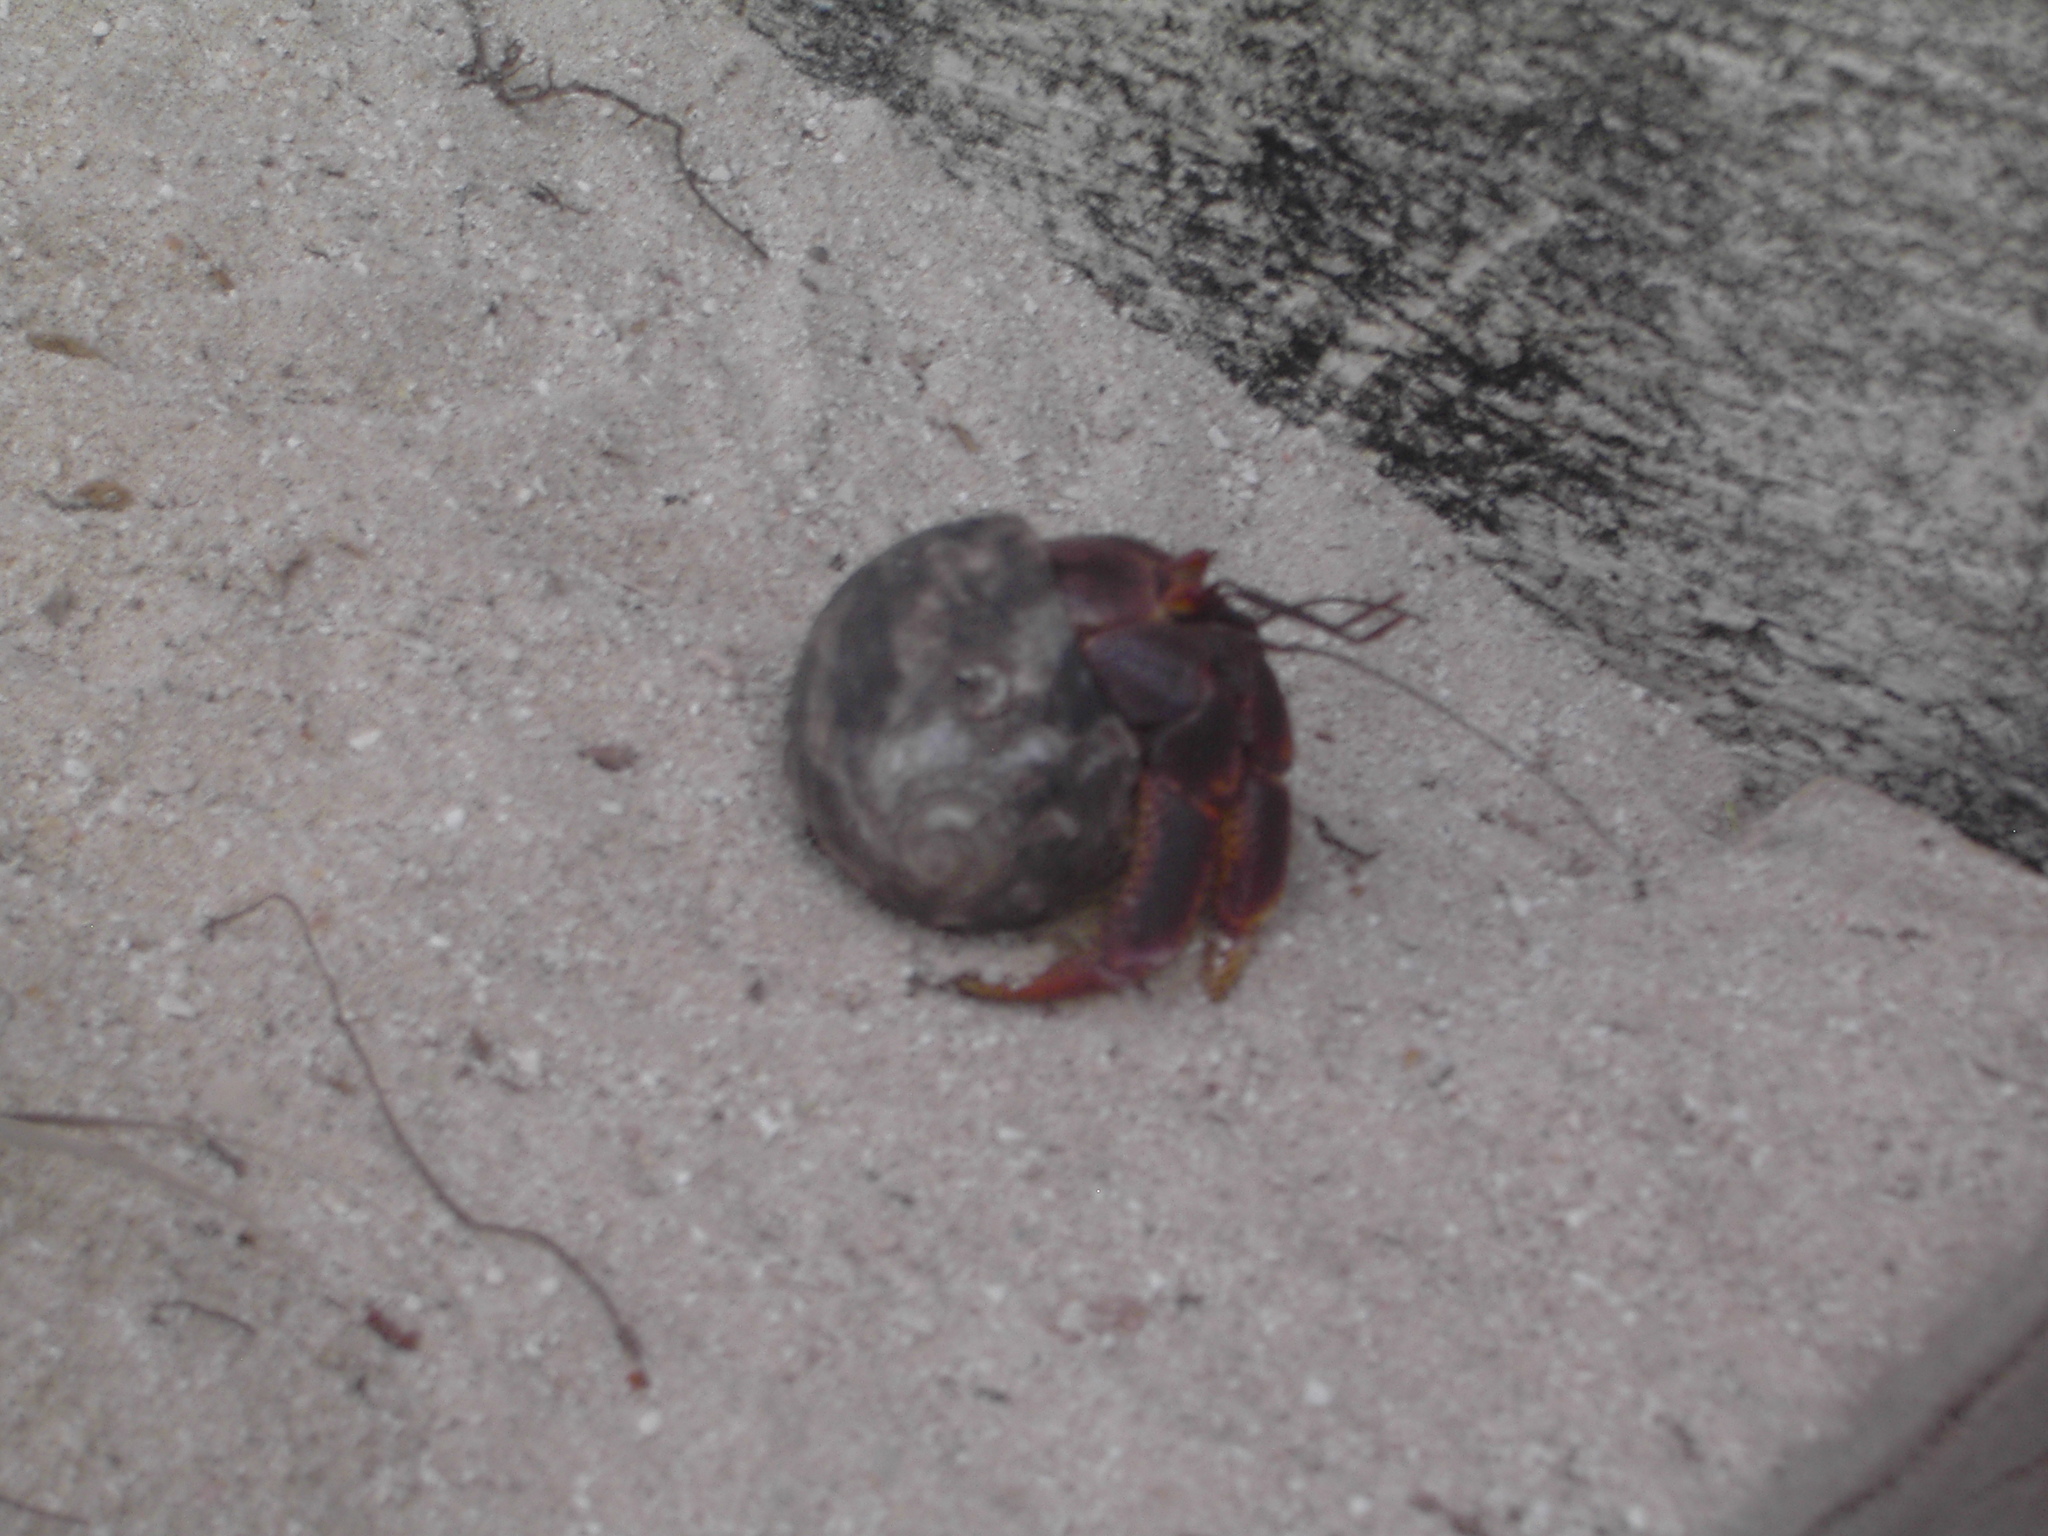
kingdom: Animalia
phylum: Arthropoda
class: Malacostraca
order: Decapoda
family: Coenobitidae
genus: Coenobita
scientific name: Coenobita clypeatus
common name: Caribbean hermit crab
